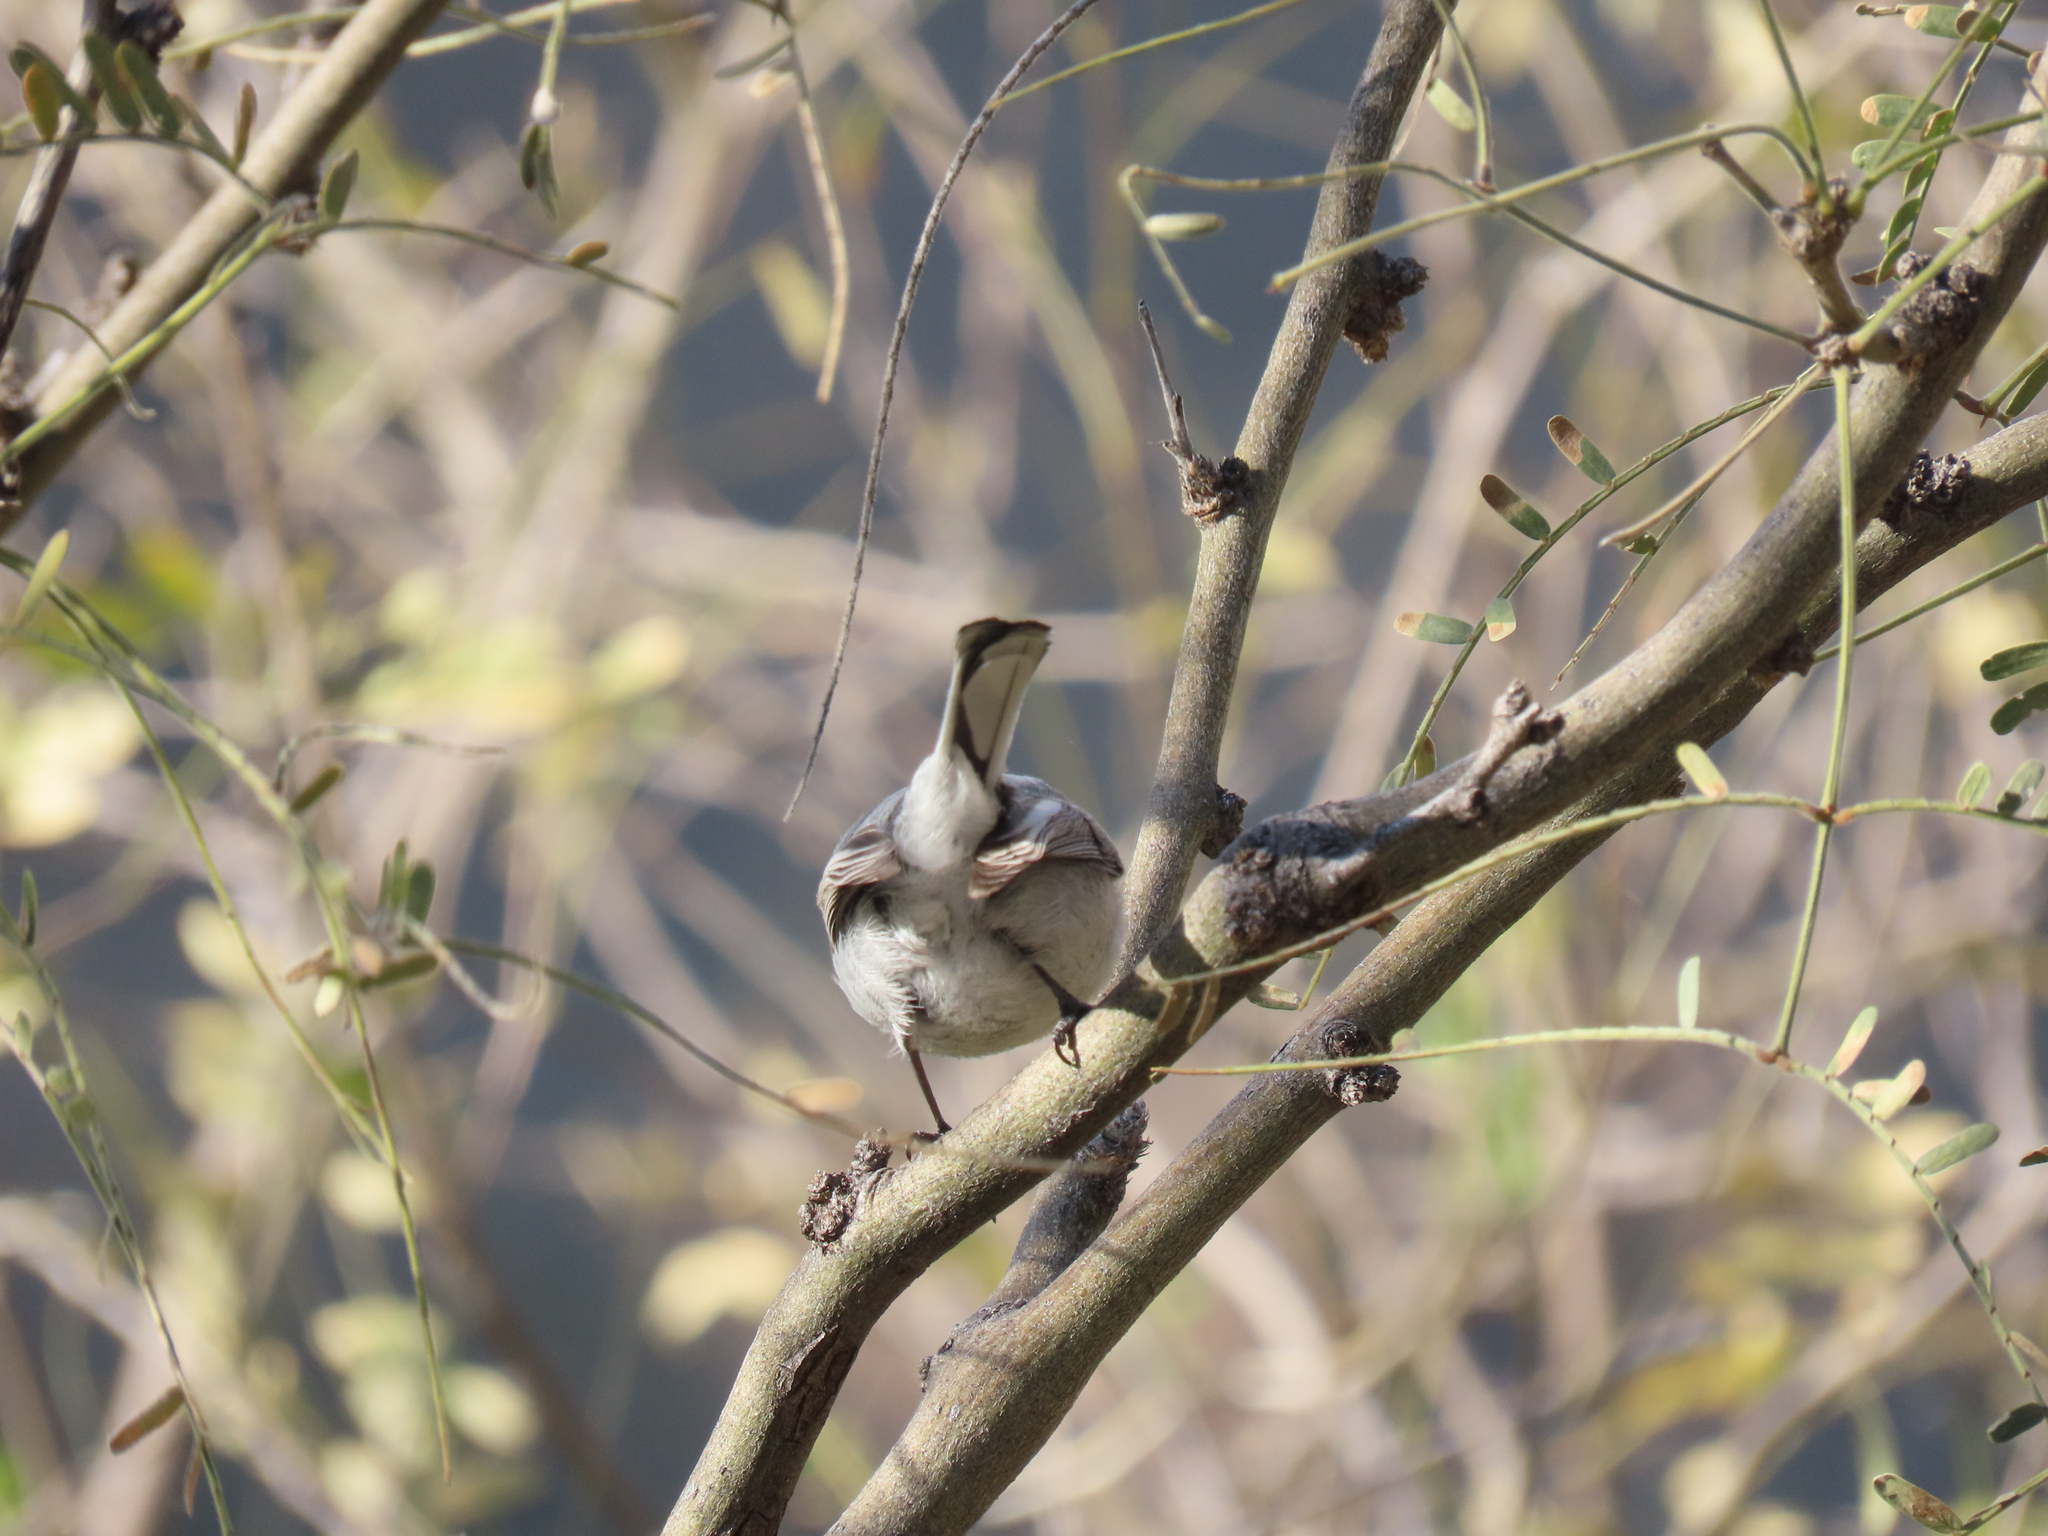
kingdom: Animalia
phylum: Chordata
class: Aves
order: Passeriformes
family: Polioptilidae
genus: Polioptila
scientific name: Polioptila caerulea
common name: Blue-gray gnatcatcher
